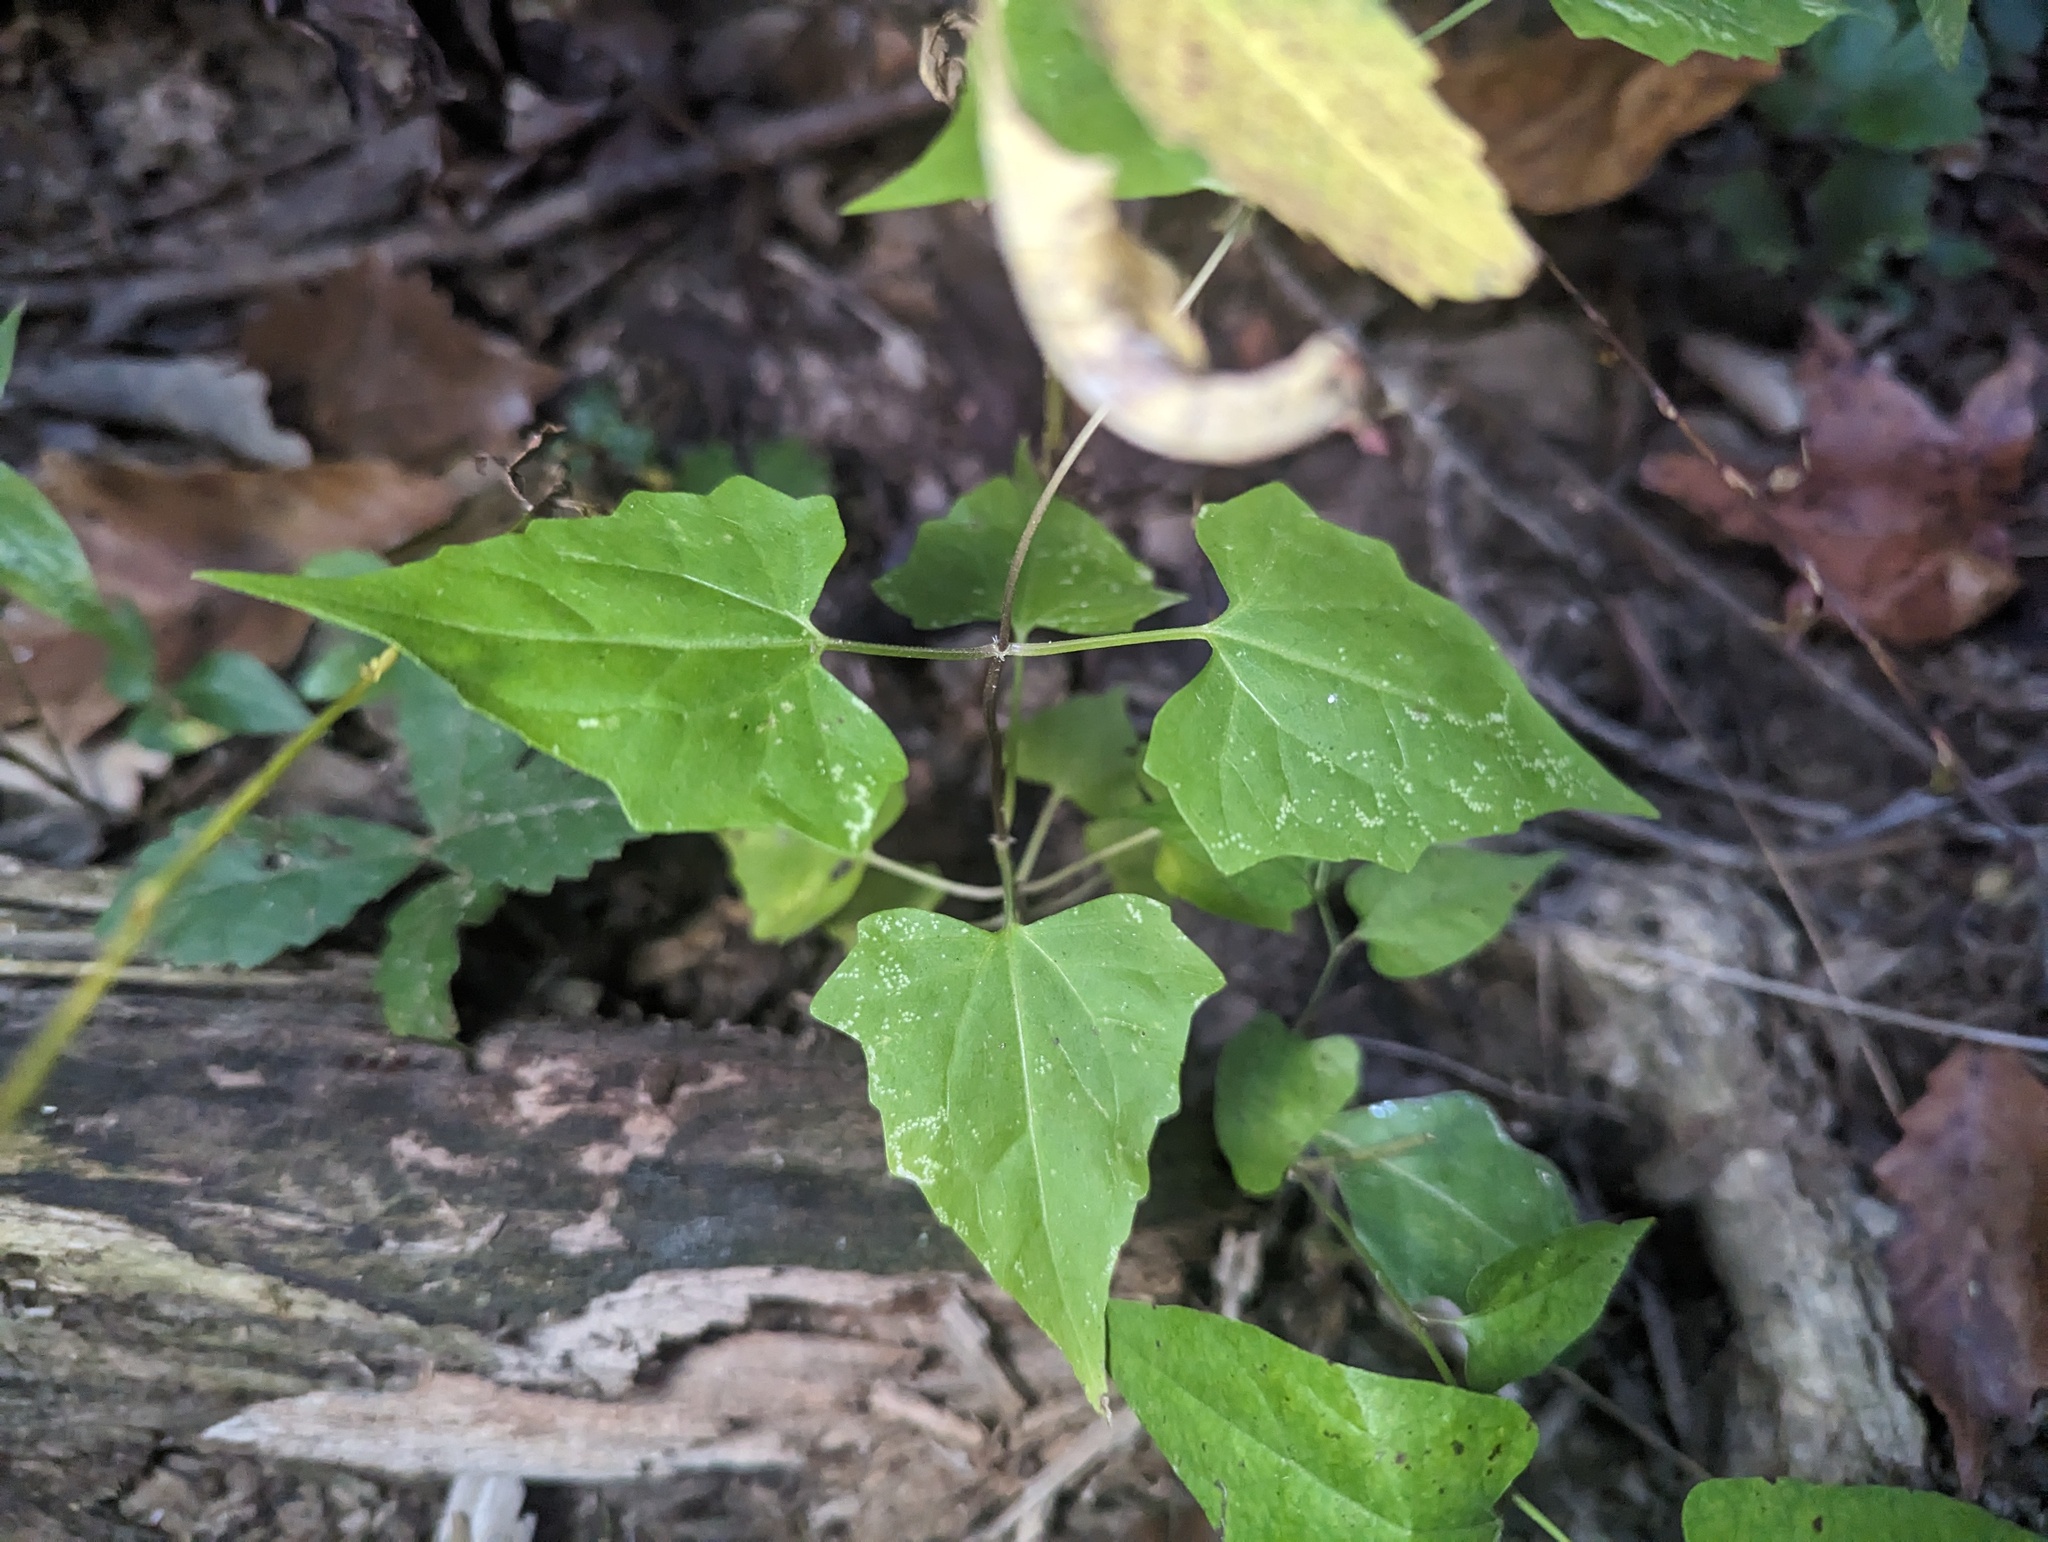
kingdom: Plantae
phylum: Tracheophyta
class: Magnoliopsida
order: Asterales
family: Asteraceae
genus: Mikania
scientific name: Mikania scandens
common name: Climbing hempvine
